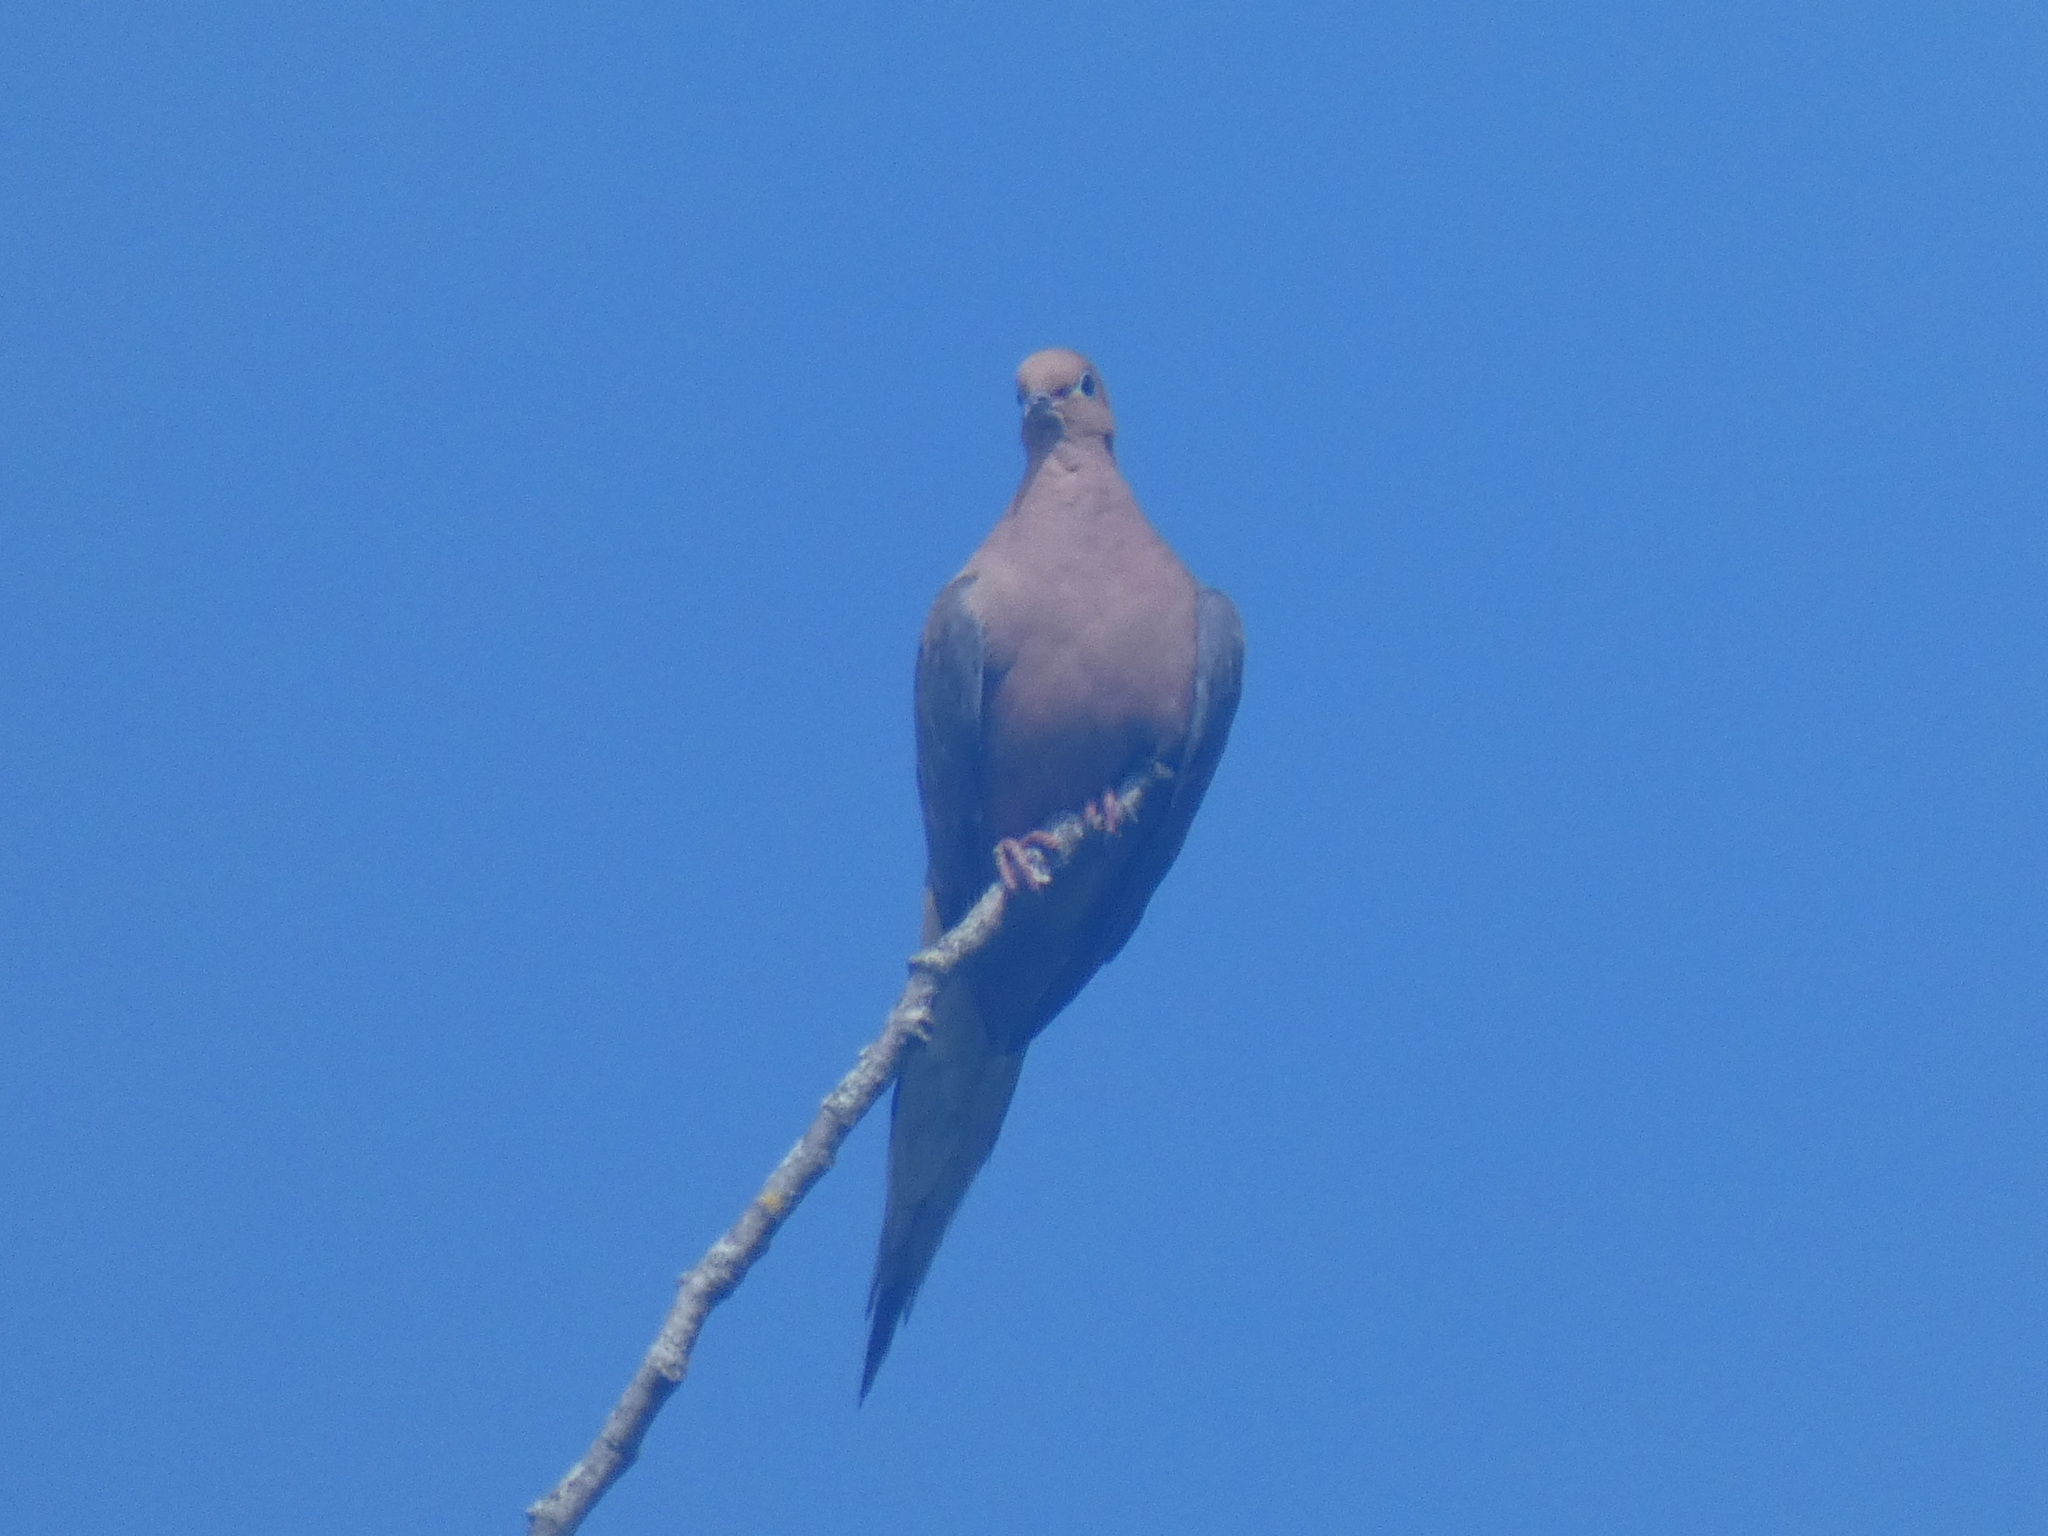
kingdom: Animalia
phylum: Chordata
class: Aves
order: Columbiformes
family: Columbidae
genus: Zenaida
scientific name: Zenaida macroura
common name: Mourning dove
